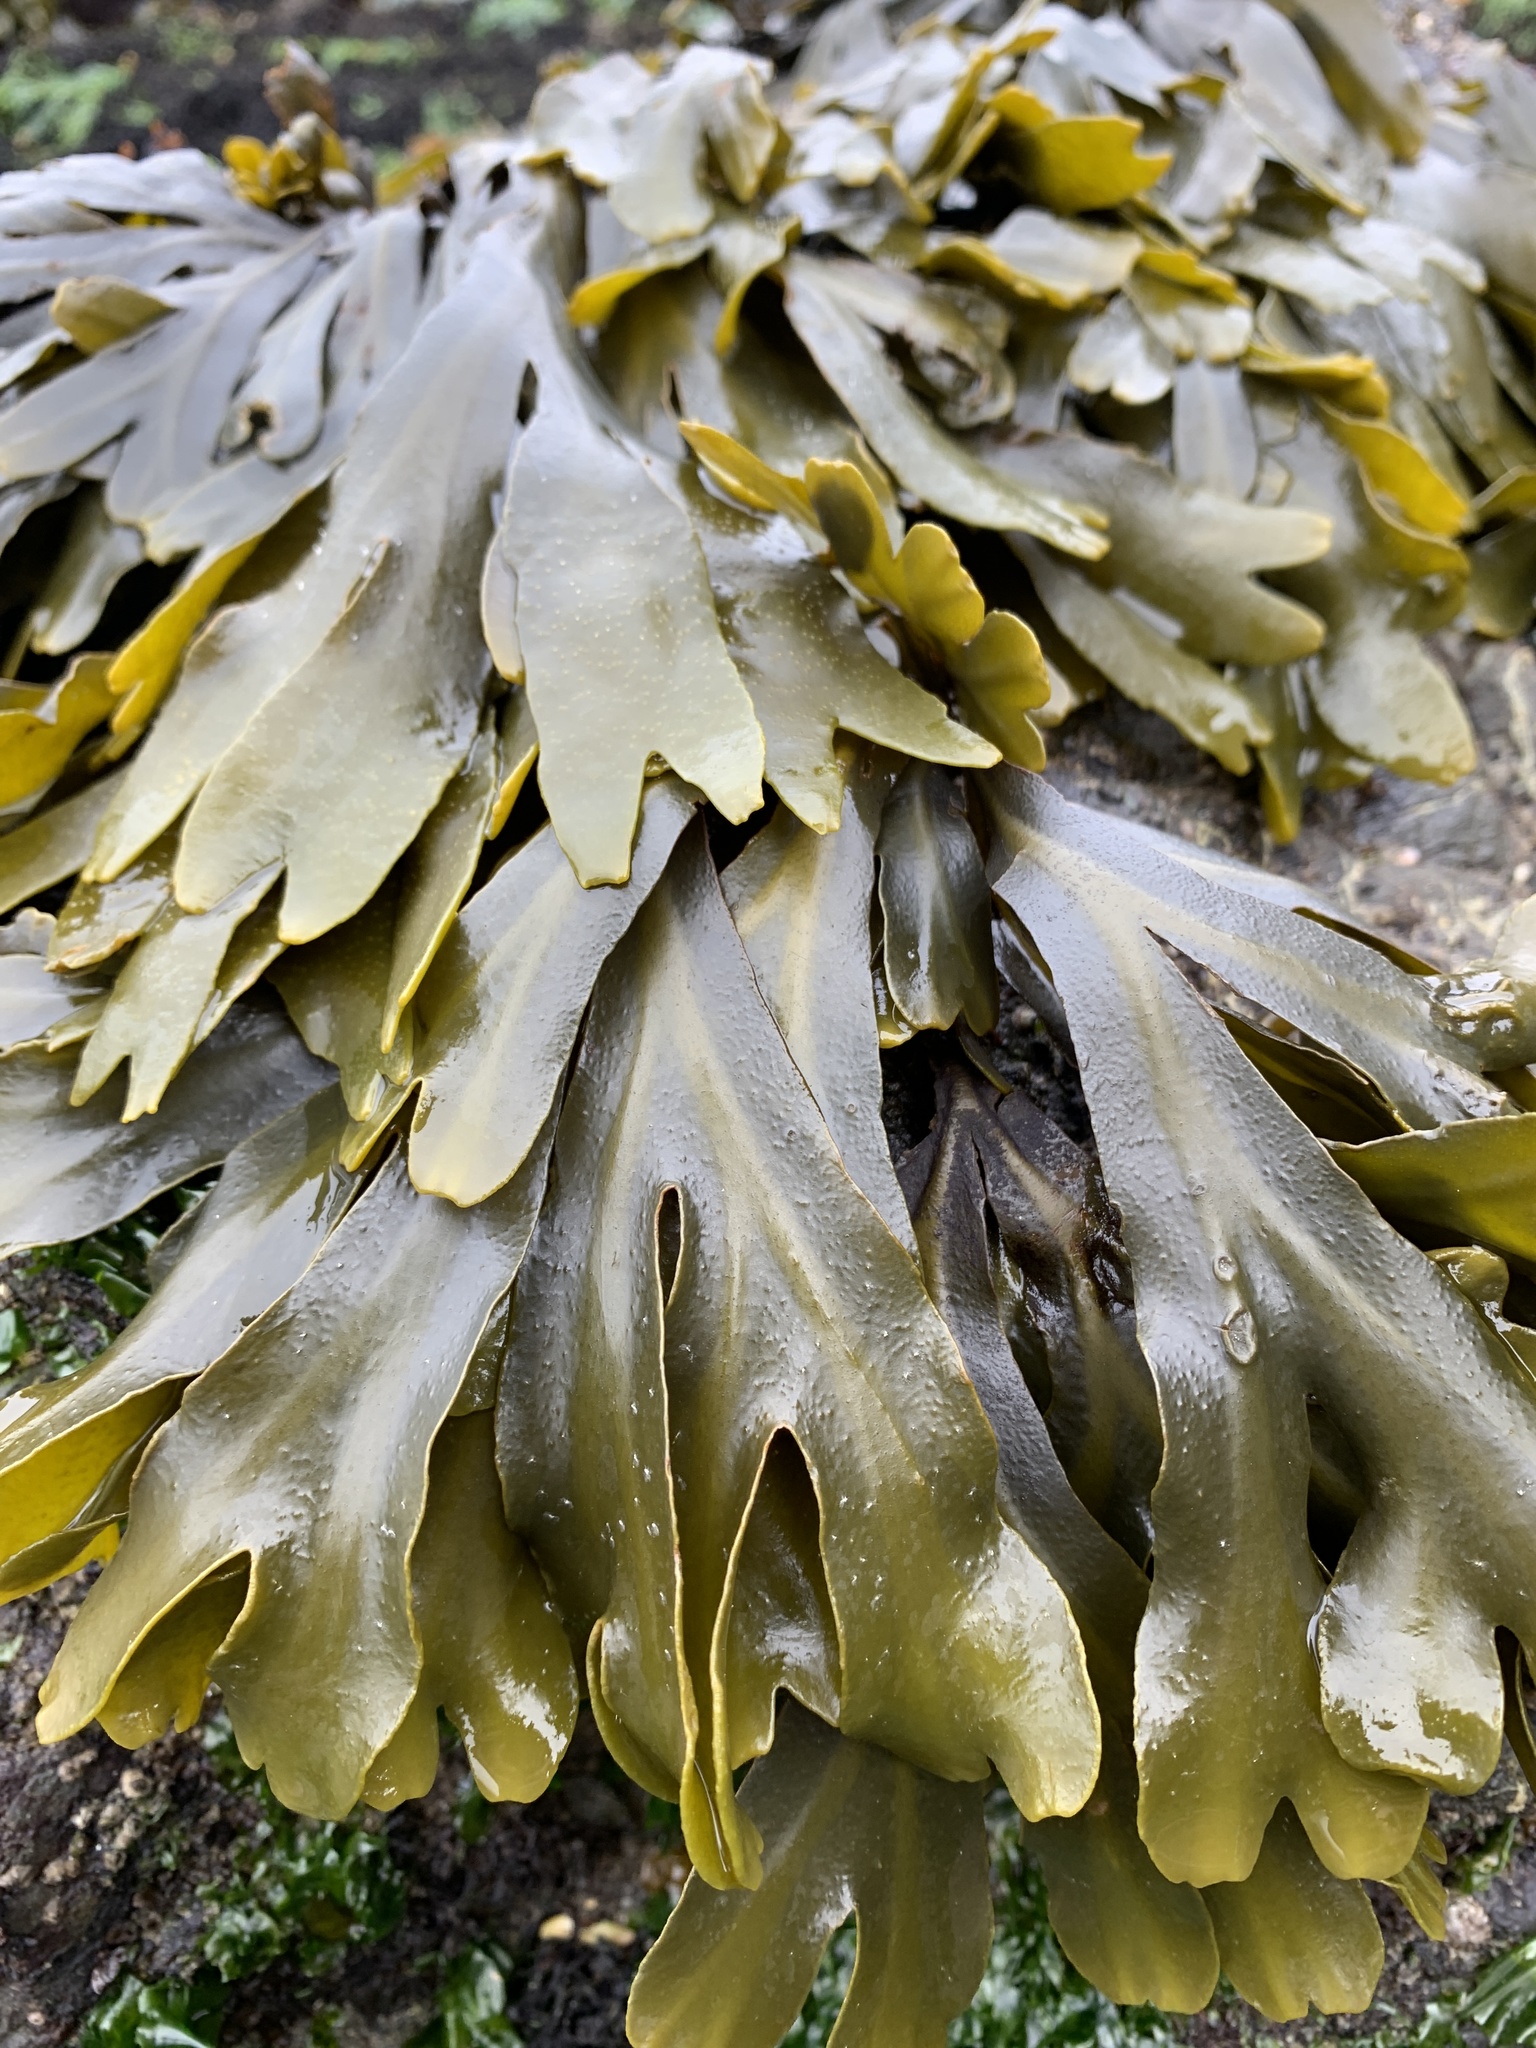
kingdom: Chromista
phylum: Ochrophyta
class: Phaeophyceae
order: Fucales
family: Fucaceae
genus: Fucus
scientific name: Fucus distichus
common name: Rockweed
